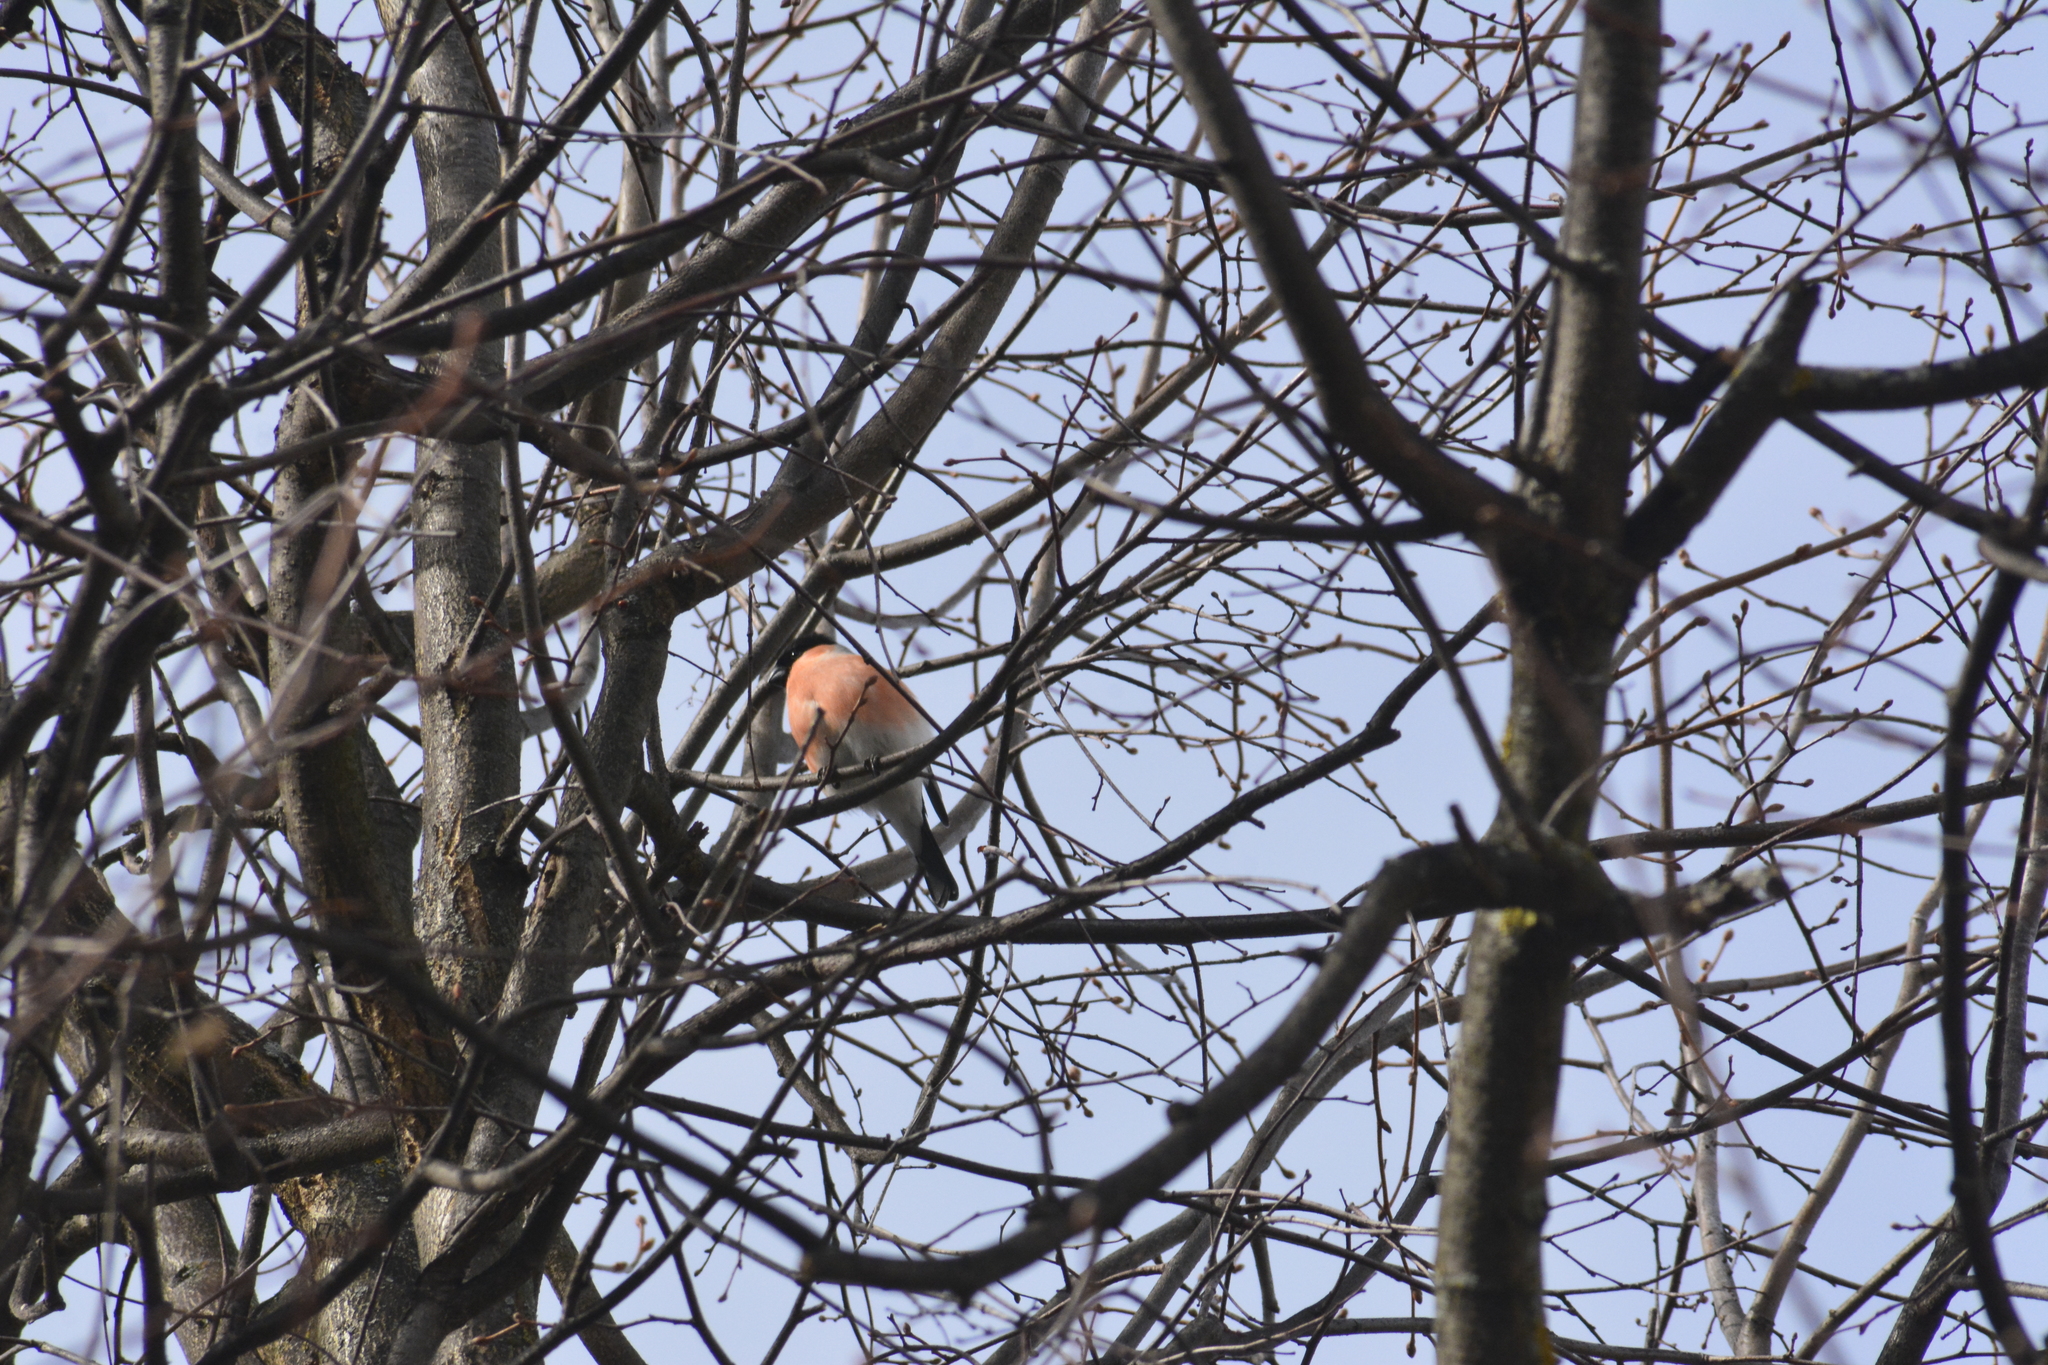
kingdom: Animalia
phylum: Chordata
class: Aves
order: Passeriformes
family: Fringillidae
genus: Pyrrhula
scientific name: Pyrrhula pyrrhula
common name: Eurasian bullfinch
